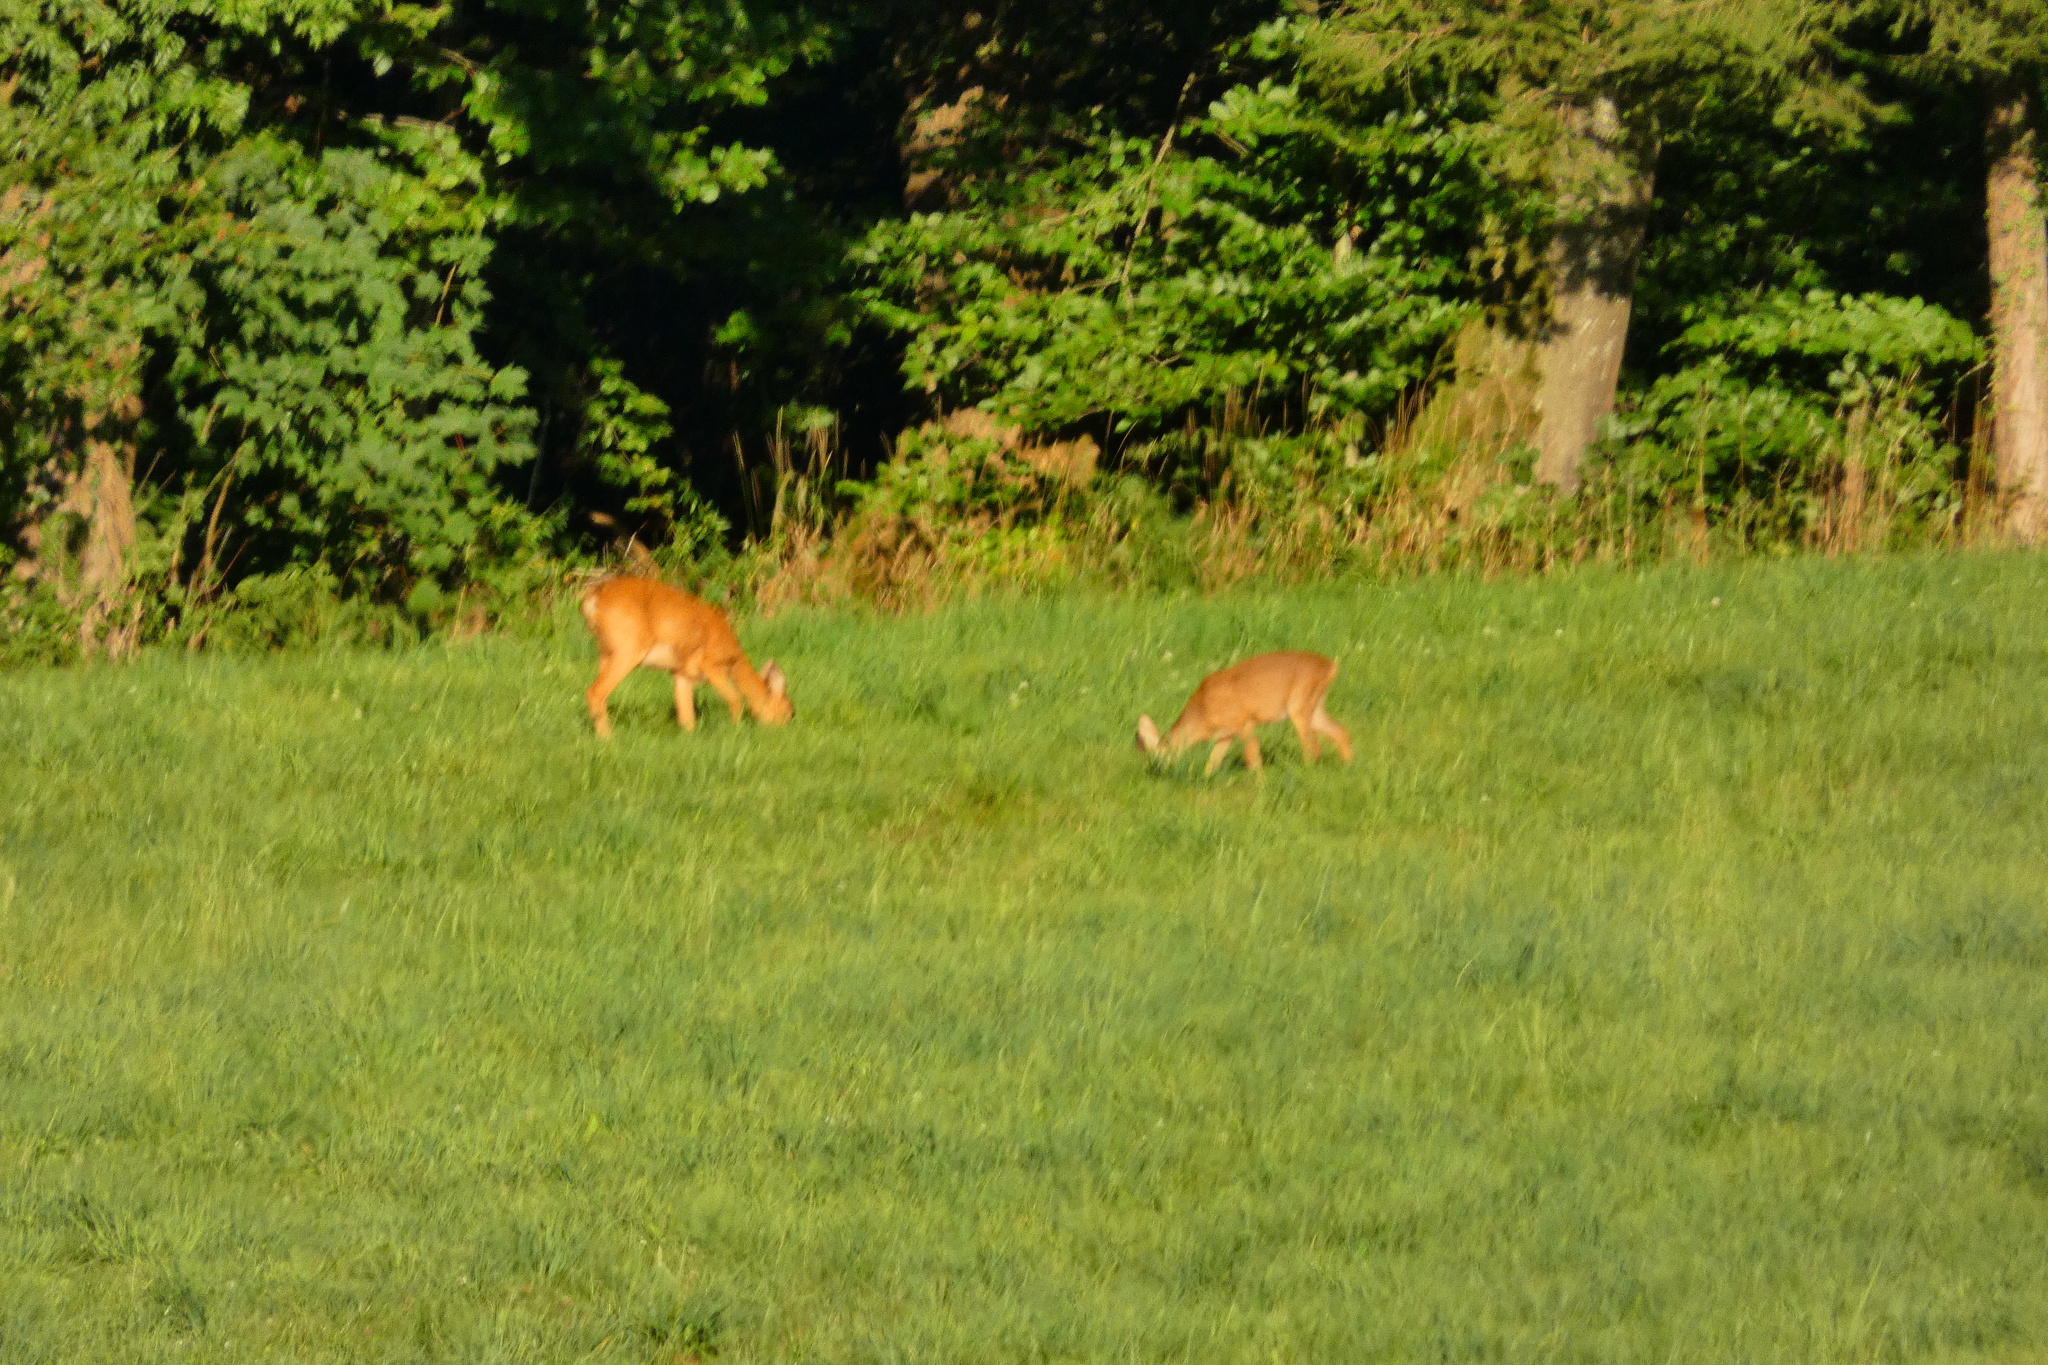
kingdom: Animalia
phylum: Chordata
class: Mammalia
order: Artiodactyla
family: Cervidae
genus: Capreolus
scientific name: Capreolus capreolus
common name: Western roe deer
